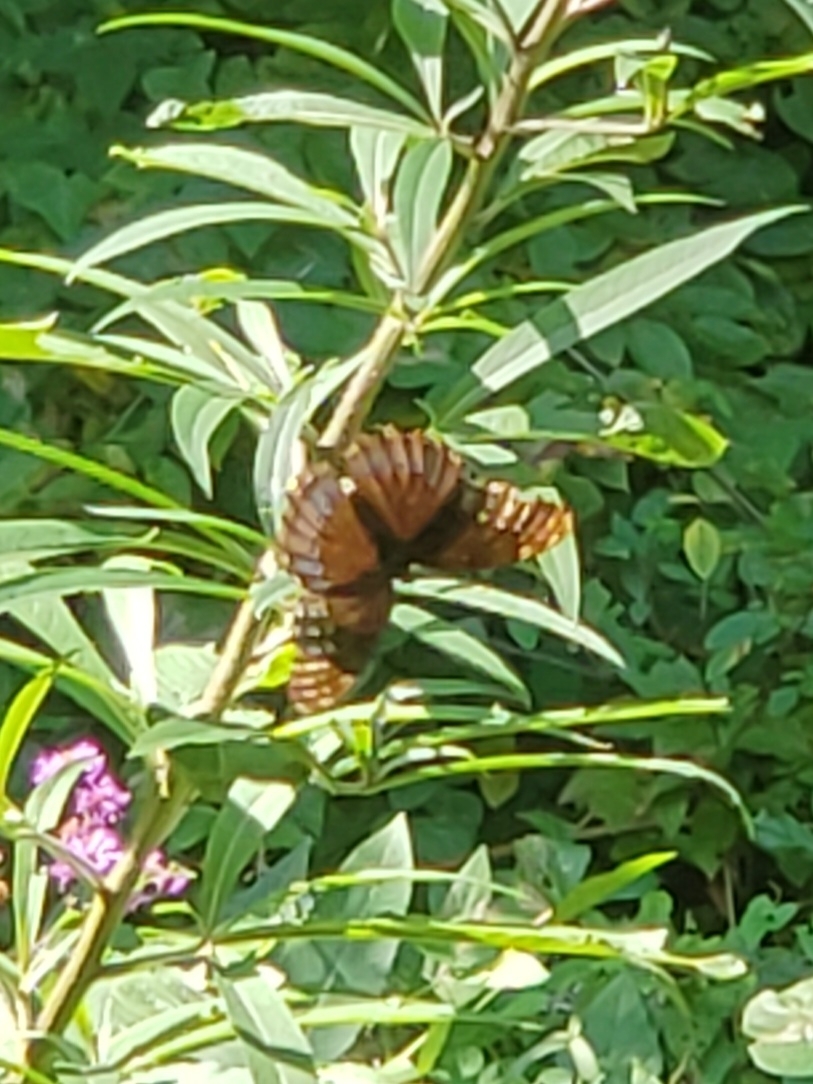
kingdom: Animalia
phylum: Arthropoda
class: Insecta
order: Lepidoptera
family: Nymphalidae
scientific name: Nymphalidae
